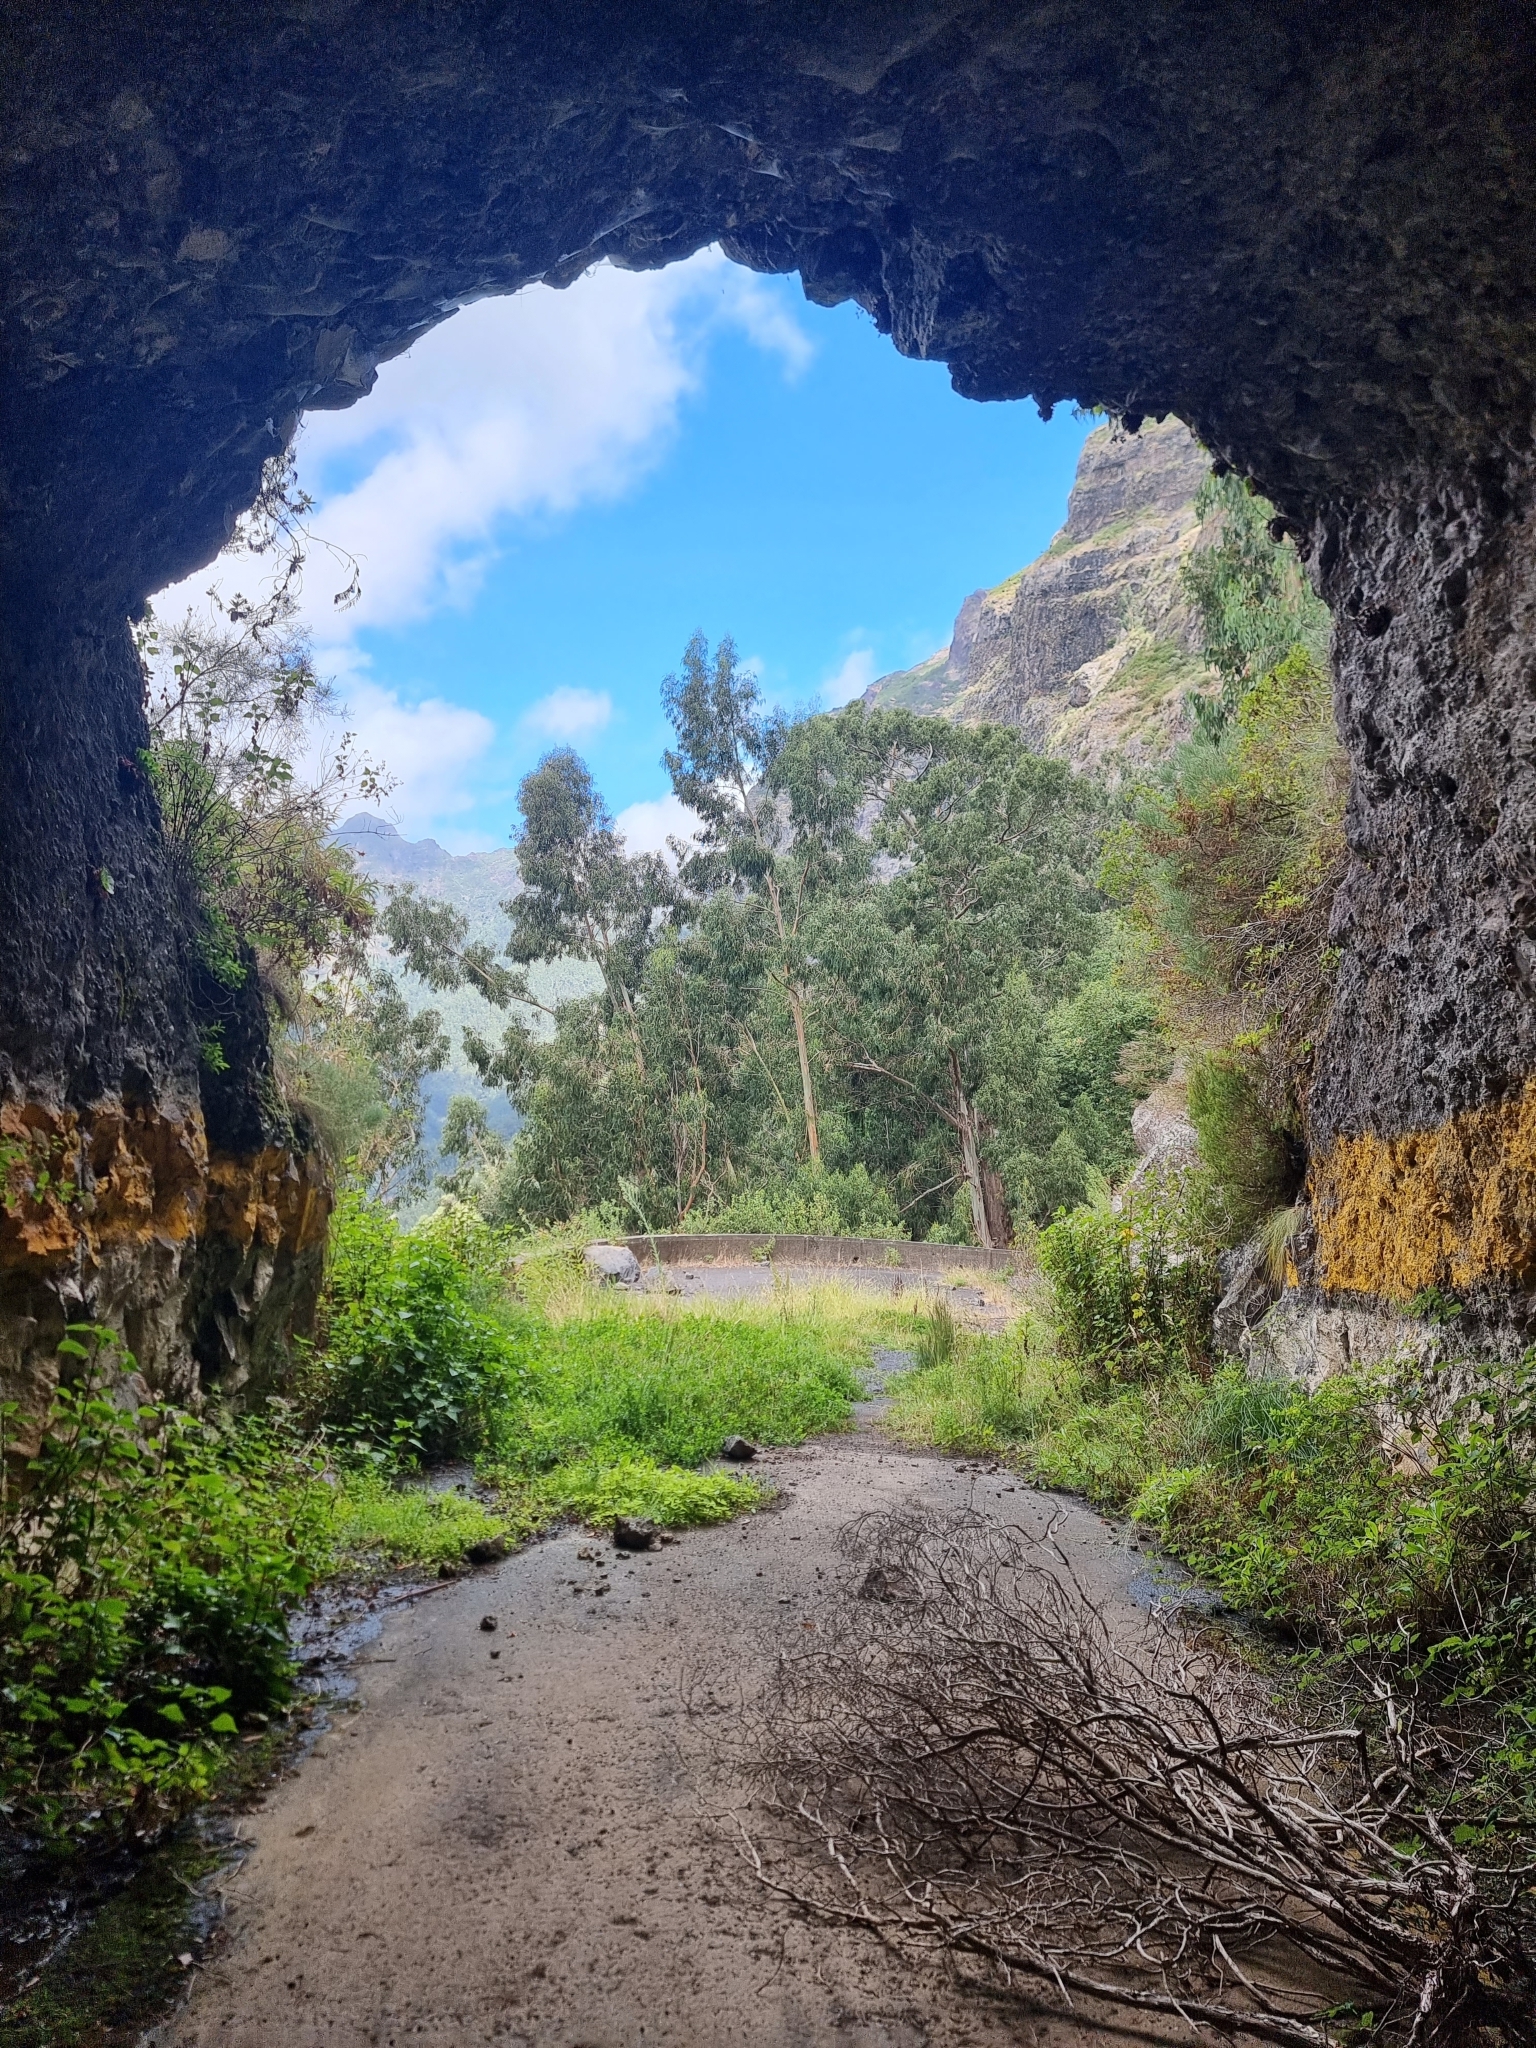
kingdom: Plantae
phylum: Tracheophyta
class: Magnoliopsida
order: Myrtales
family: Myrtaceae
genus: Eucalyptus
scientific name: Eucalyptus globulus
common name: Southern blue-gum
